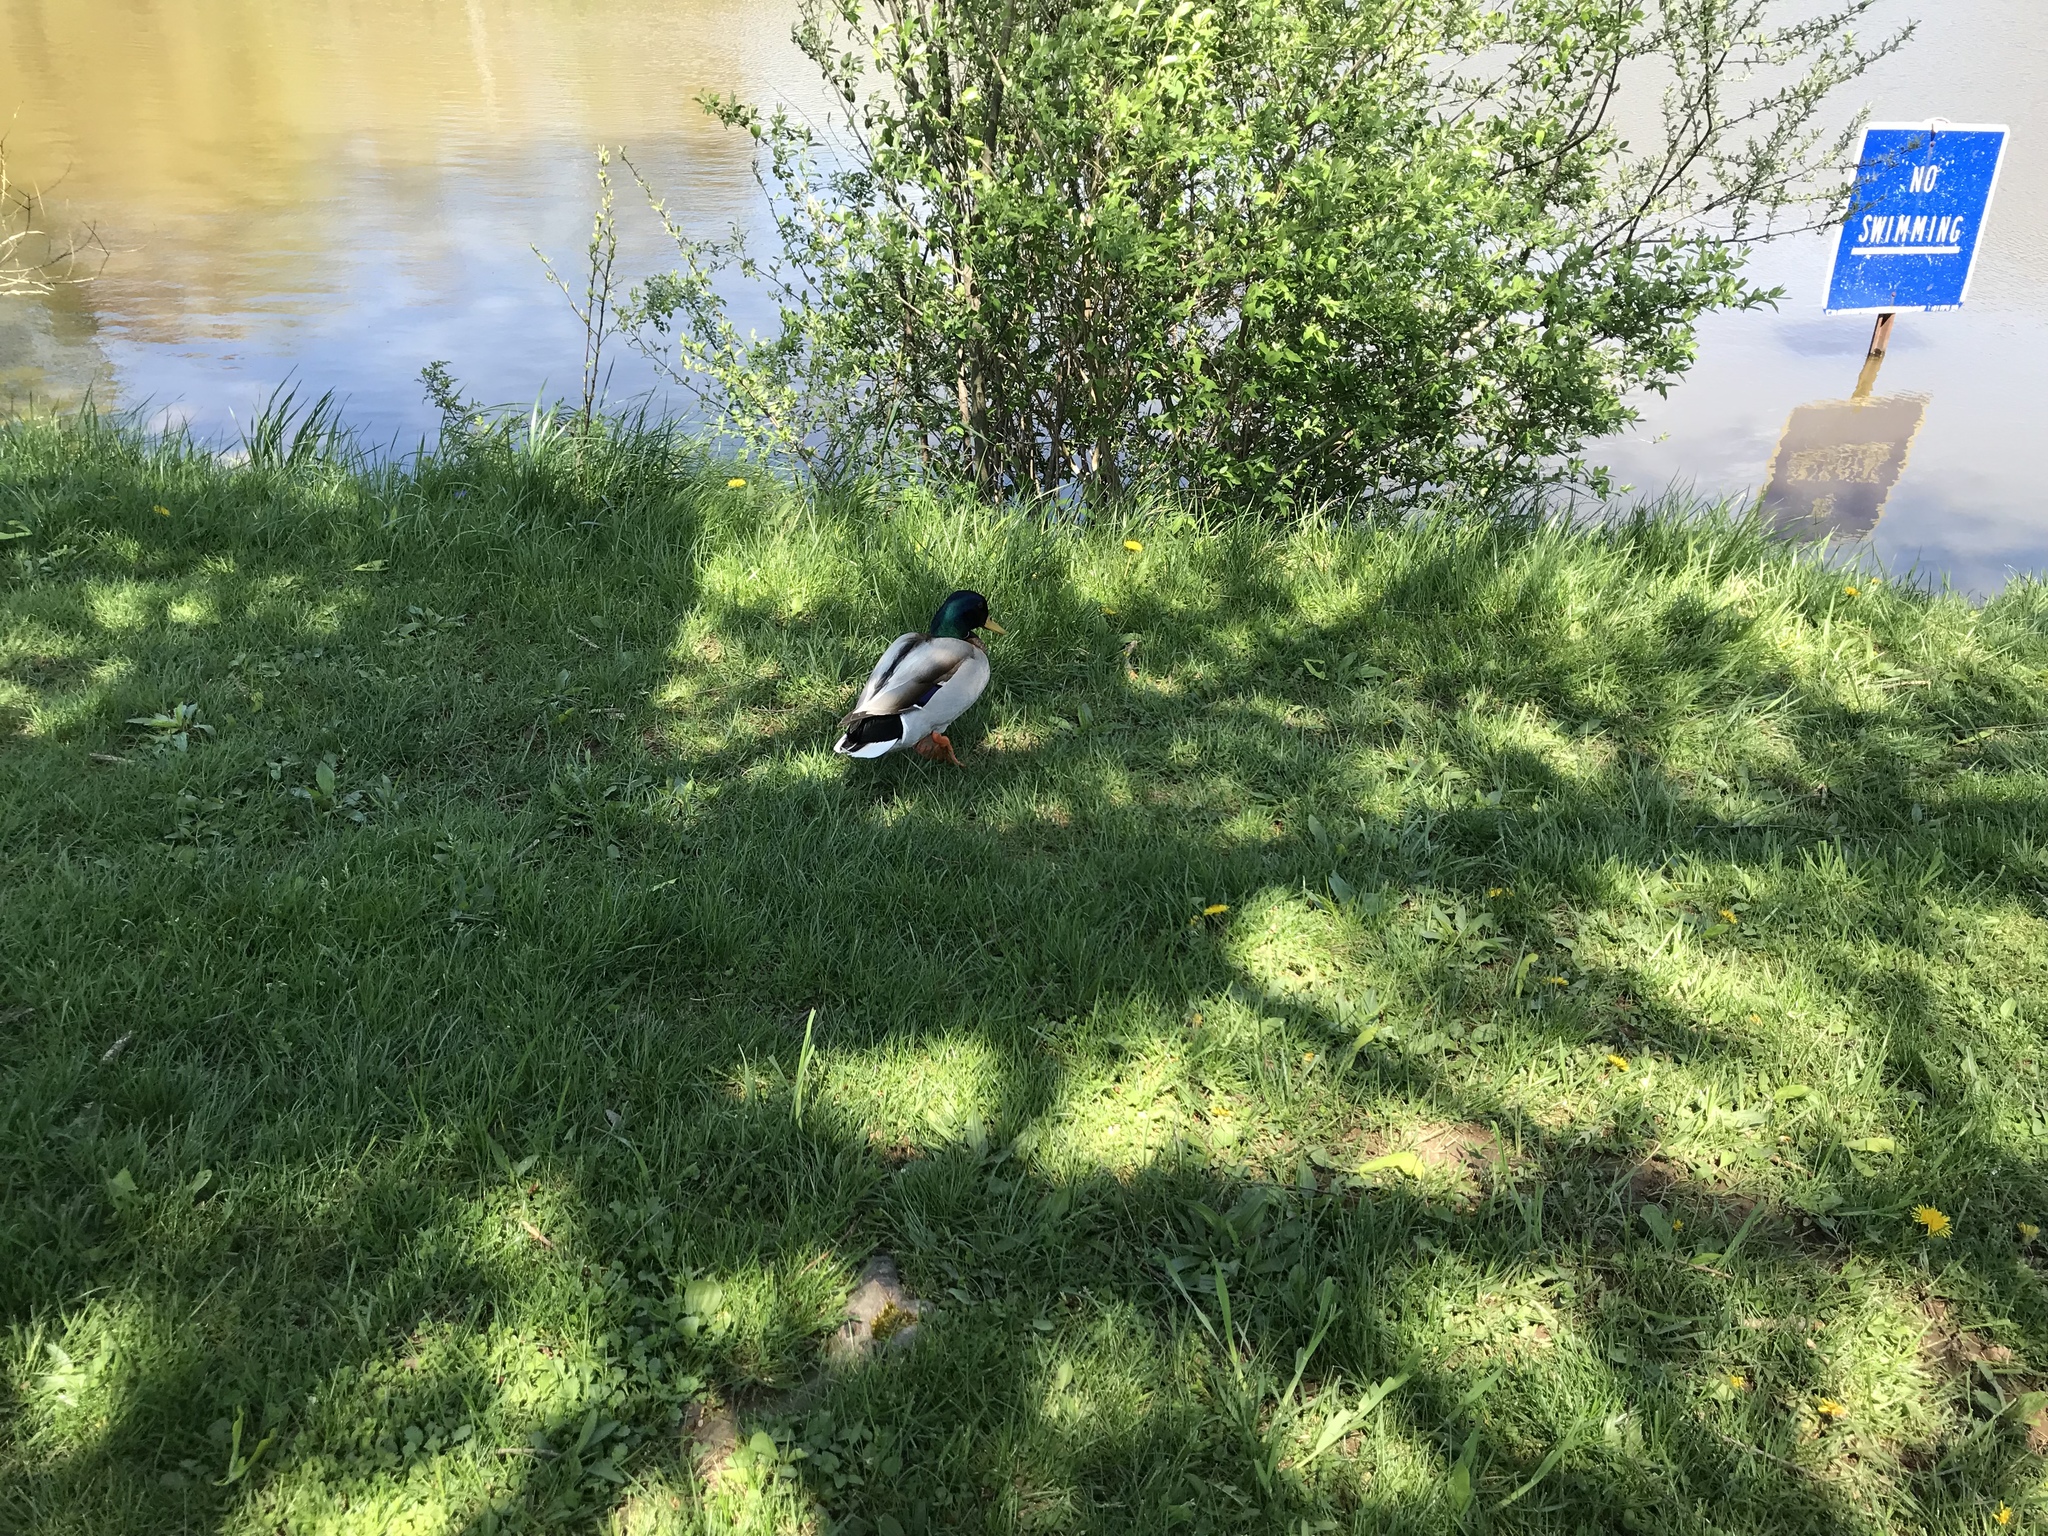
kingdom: Animalia
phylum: Chordata
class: Aves
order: Anseriformes
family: Anatidae
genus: Anas
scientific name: Anas platyrhynchos
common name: Mallard
